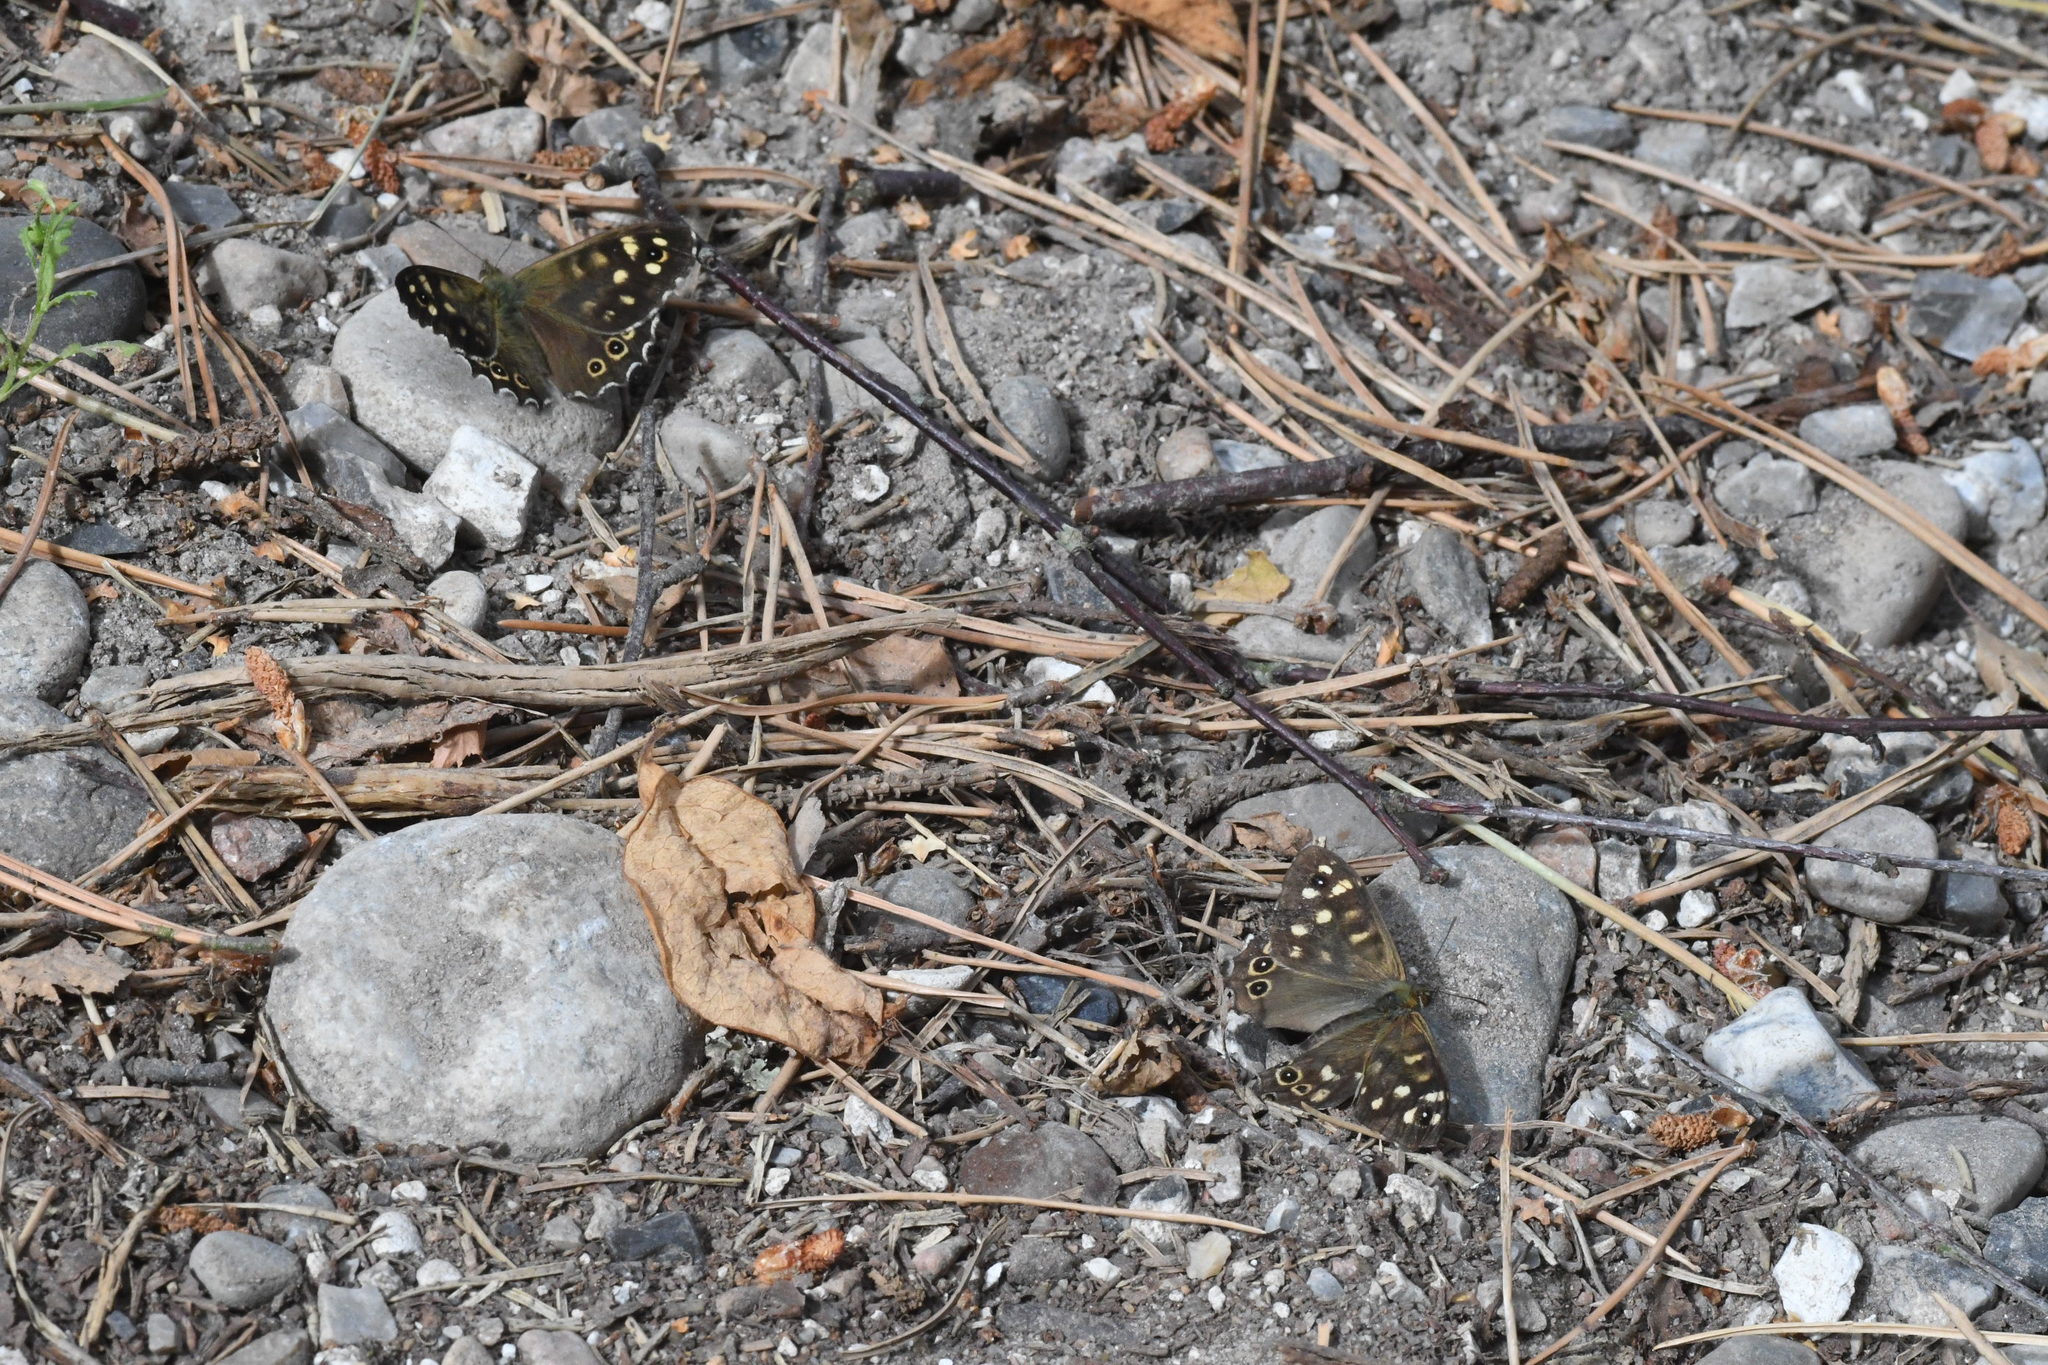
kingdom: Animalia
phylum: Arthropoda
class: Insecta
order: Lepidoptera
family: Nymphalidae
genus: Pararge
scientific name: Pararge aegeria
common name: Speckled wood
